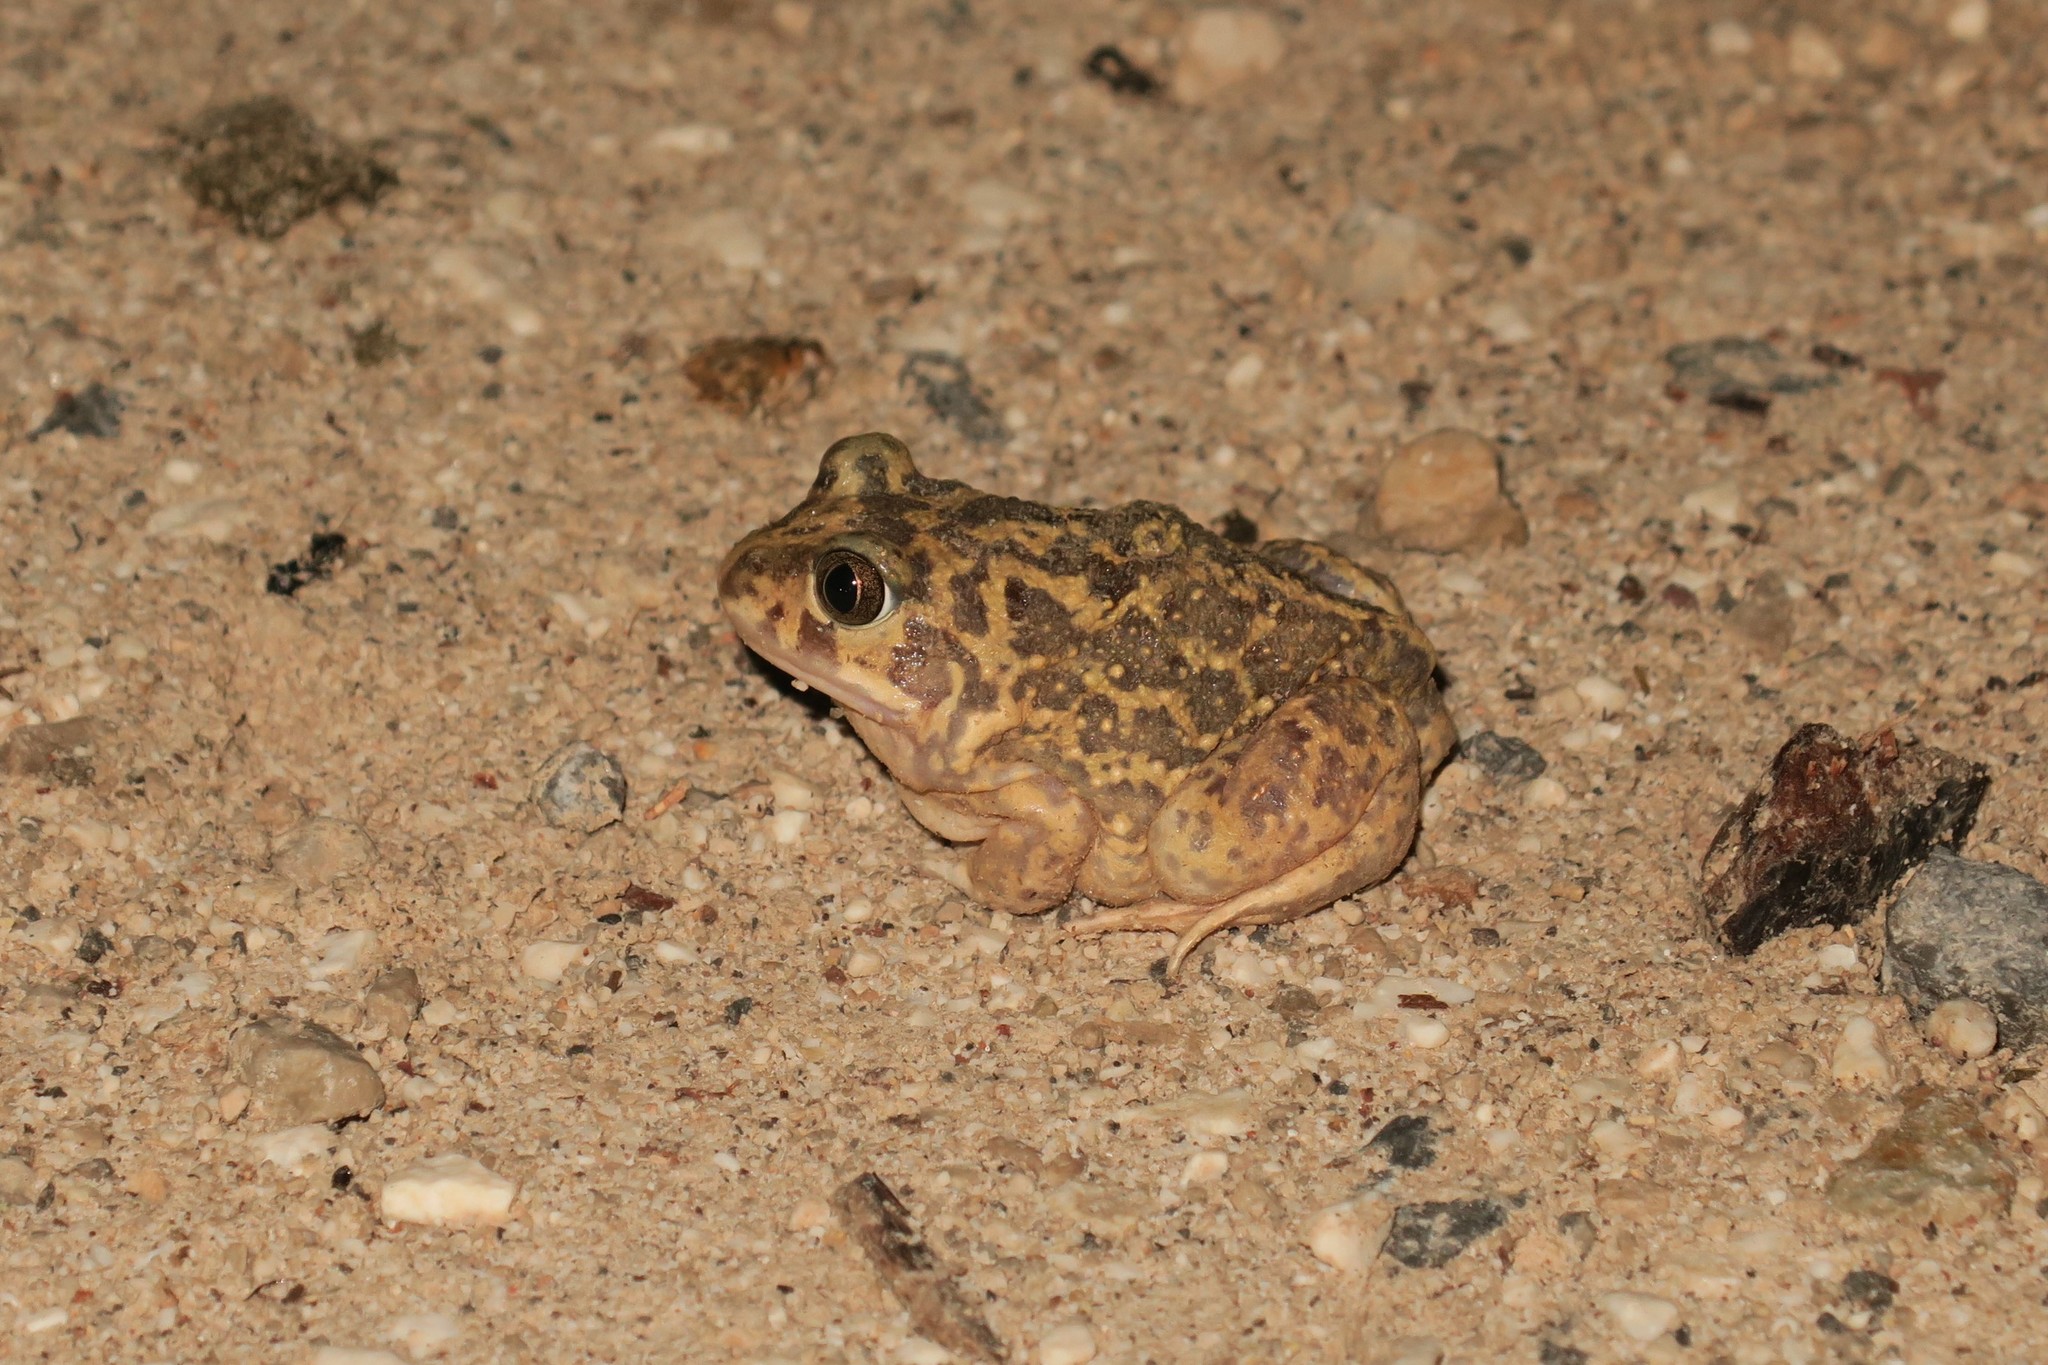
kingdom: Animalia
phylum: Chordata
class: Amphibia
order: Anura
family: Pelobatidae
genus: Pelobates
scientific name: Pelobates cultripes
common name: Western spadefoot
